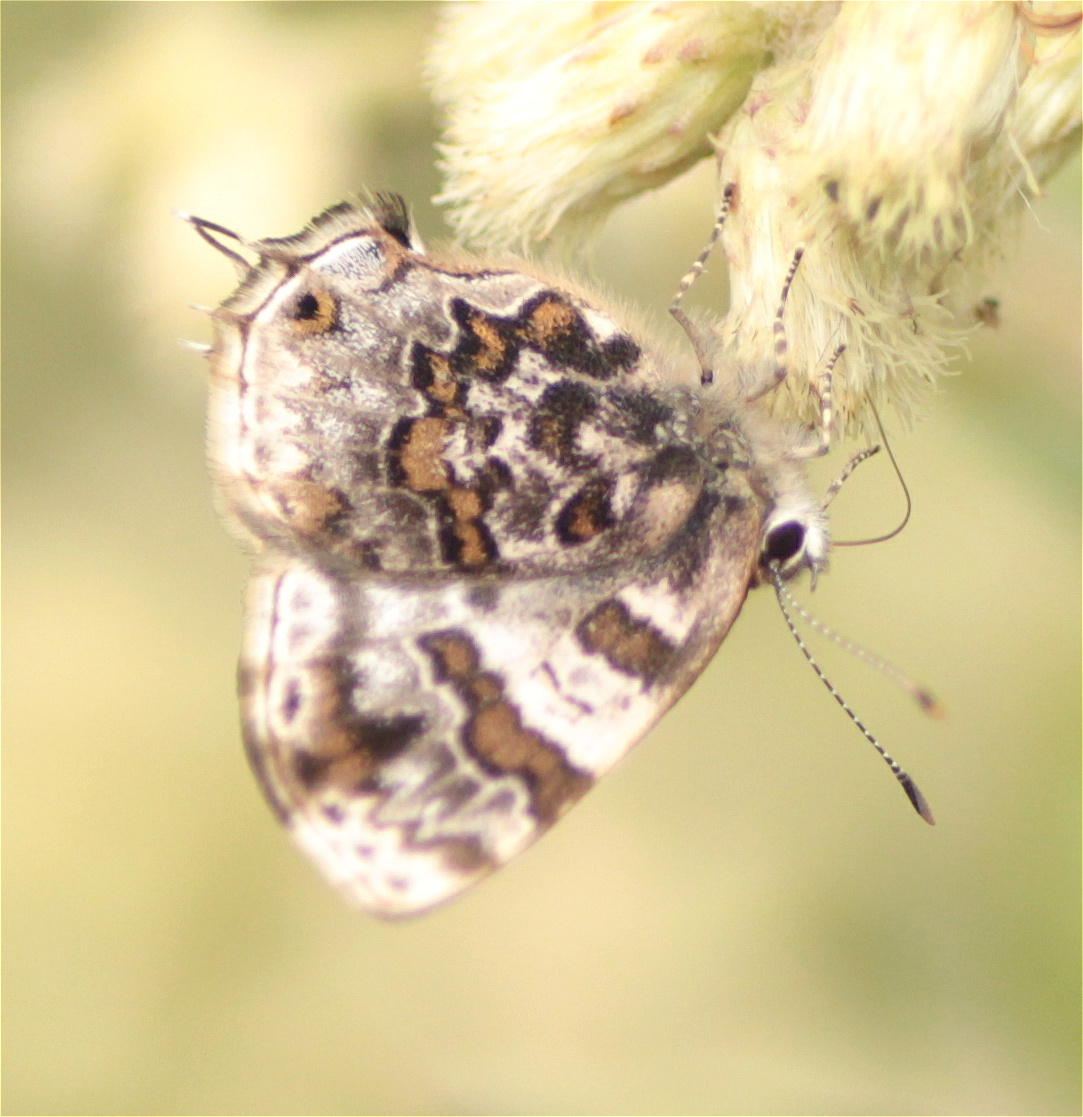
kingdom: Animalia
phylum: Arthropoda
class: Insecta
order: Lepidoptera
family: Lycaenidae
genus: Aubergina
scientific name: Aubergina vanessoides
